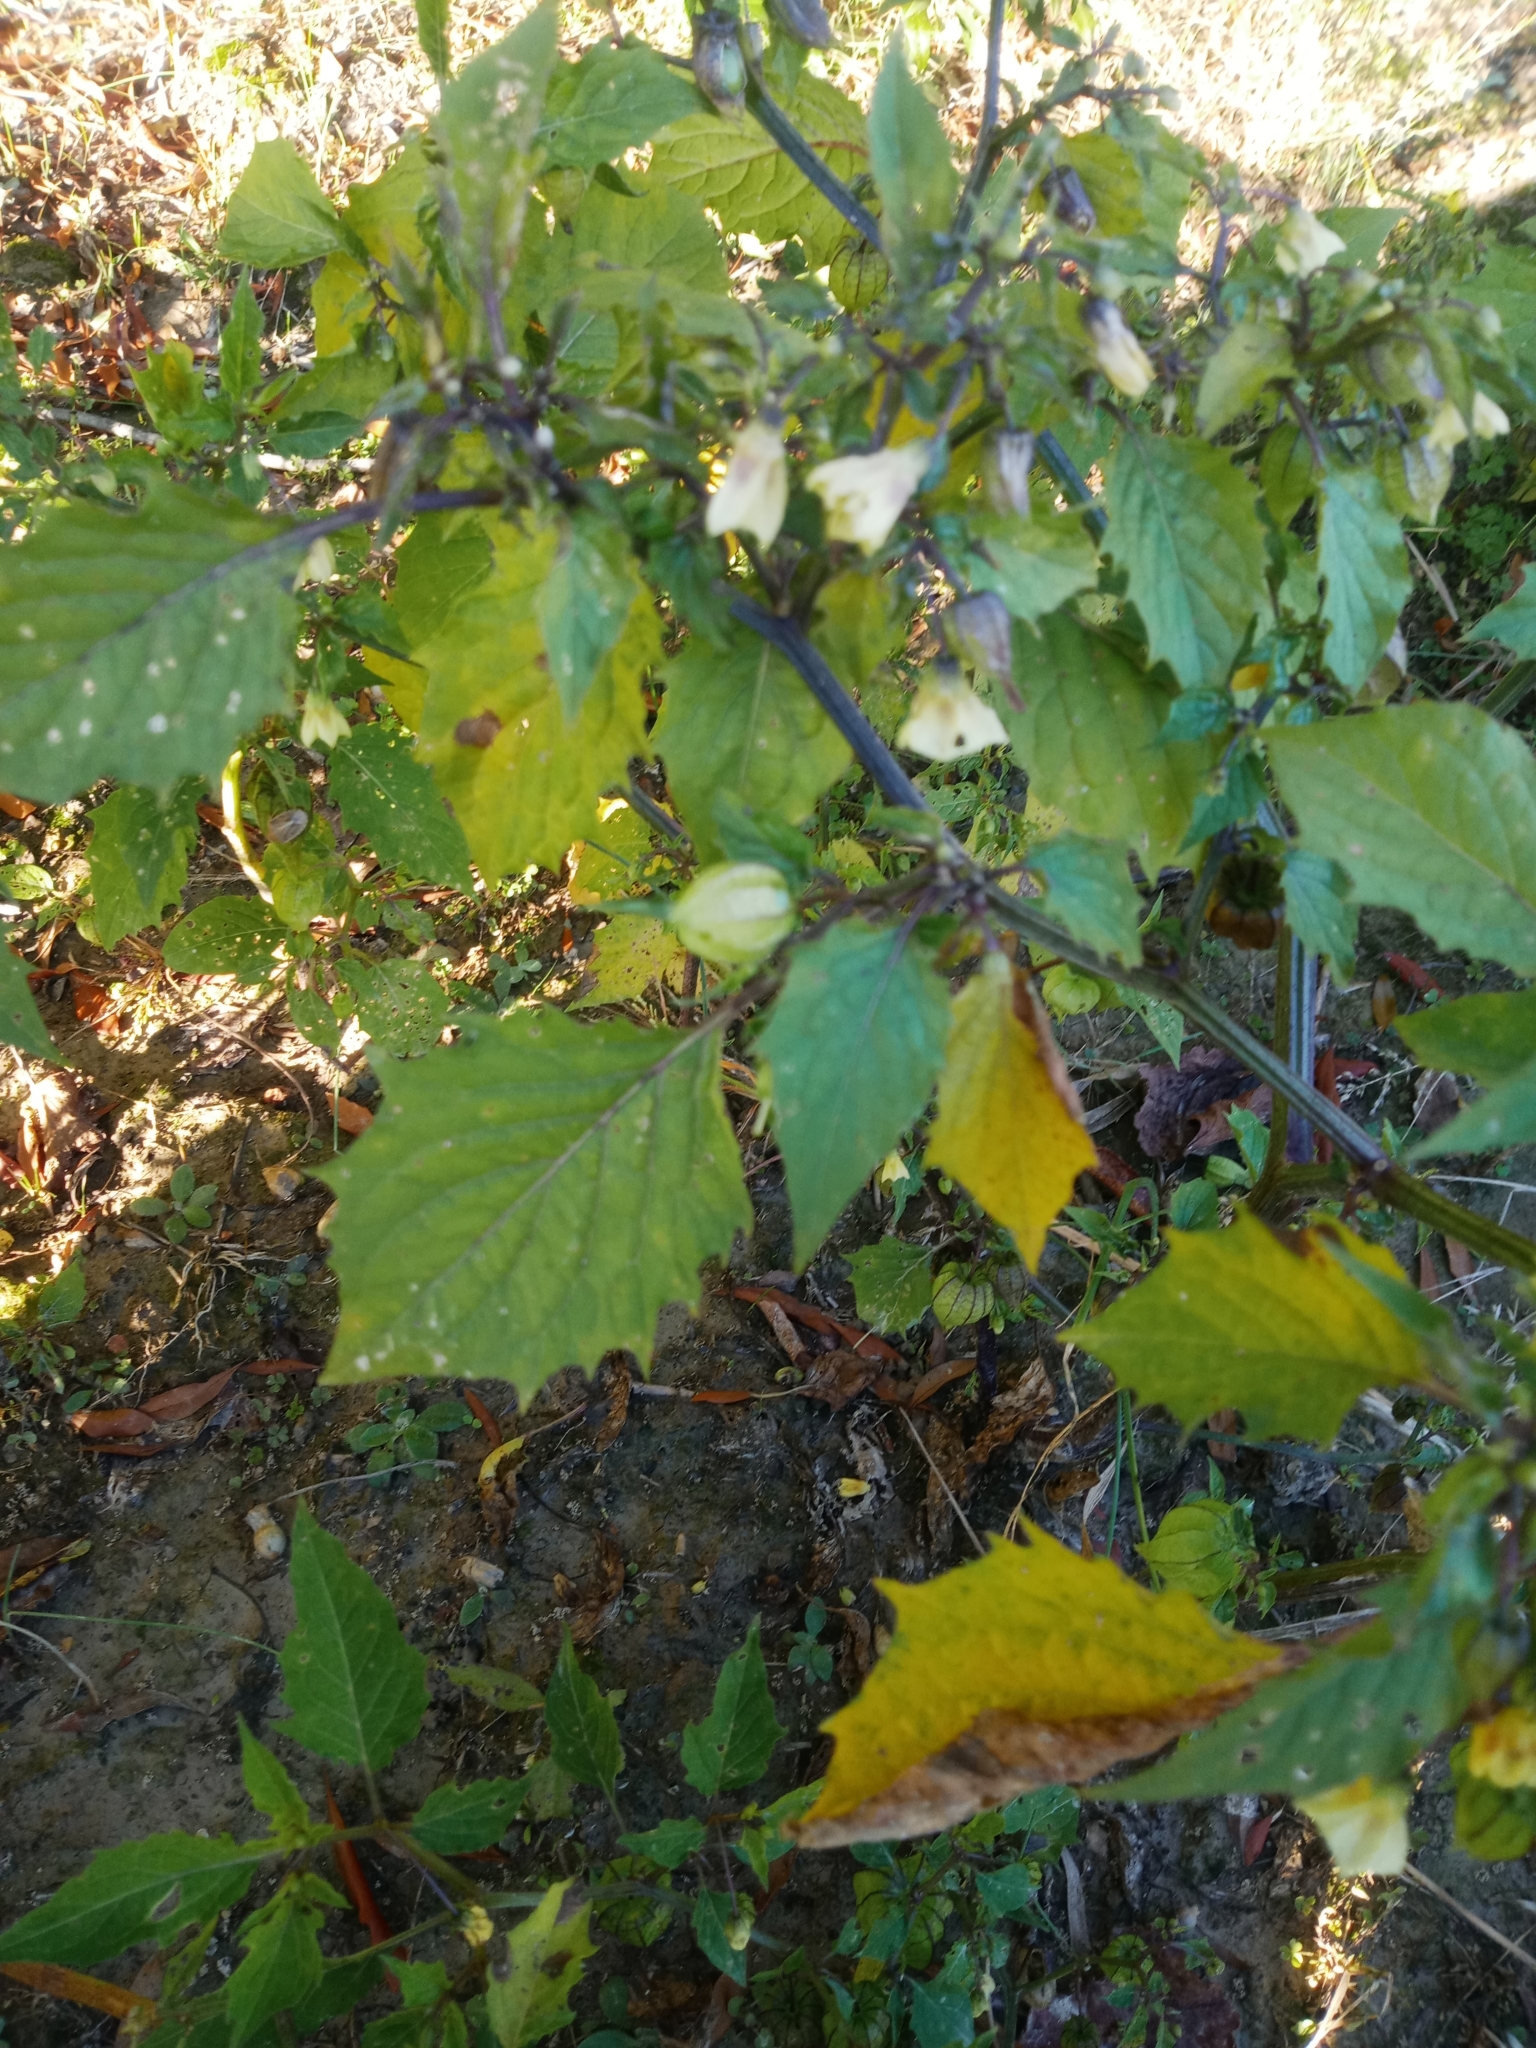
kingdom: Plantae
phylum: Tracheophyta
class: Magnoliopsida
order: Solanales
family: Solanaceae
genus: Physalis
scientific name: Physalis angulata
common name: Angular winter-cherry
